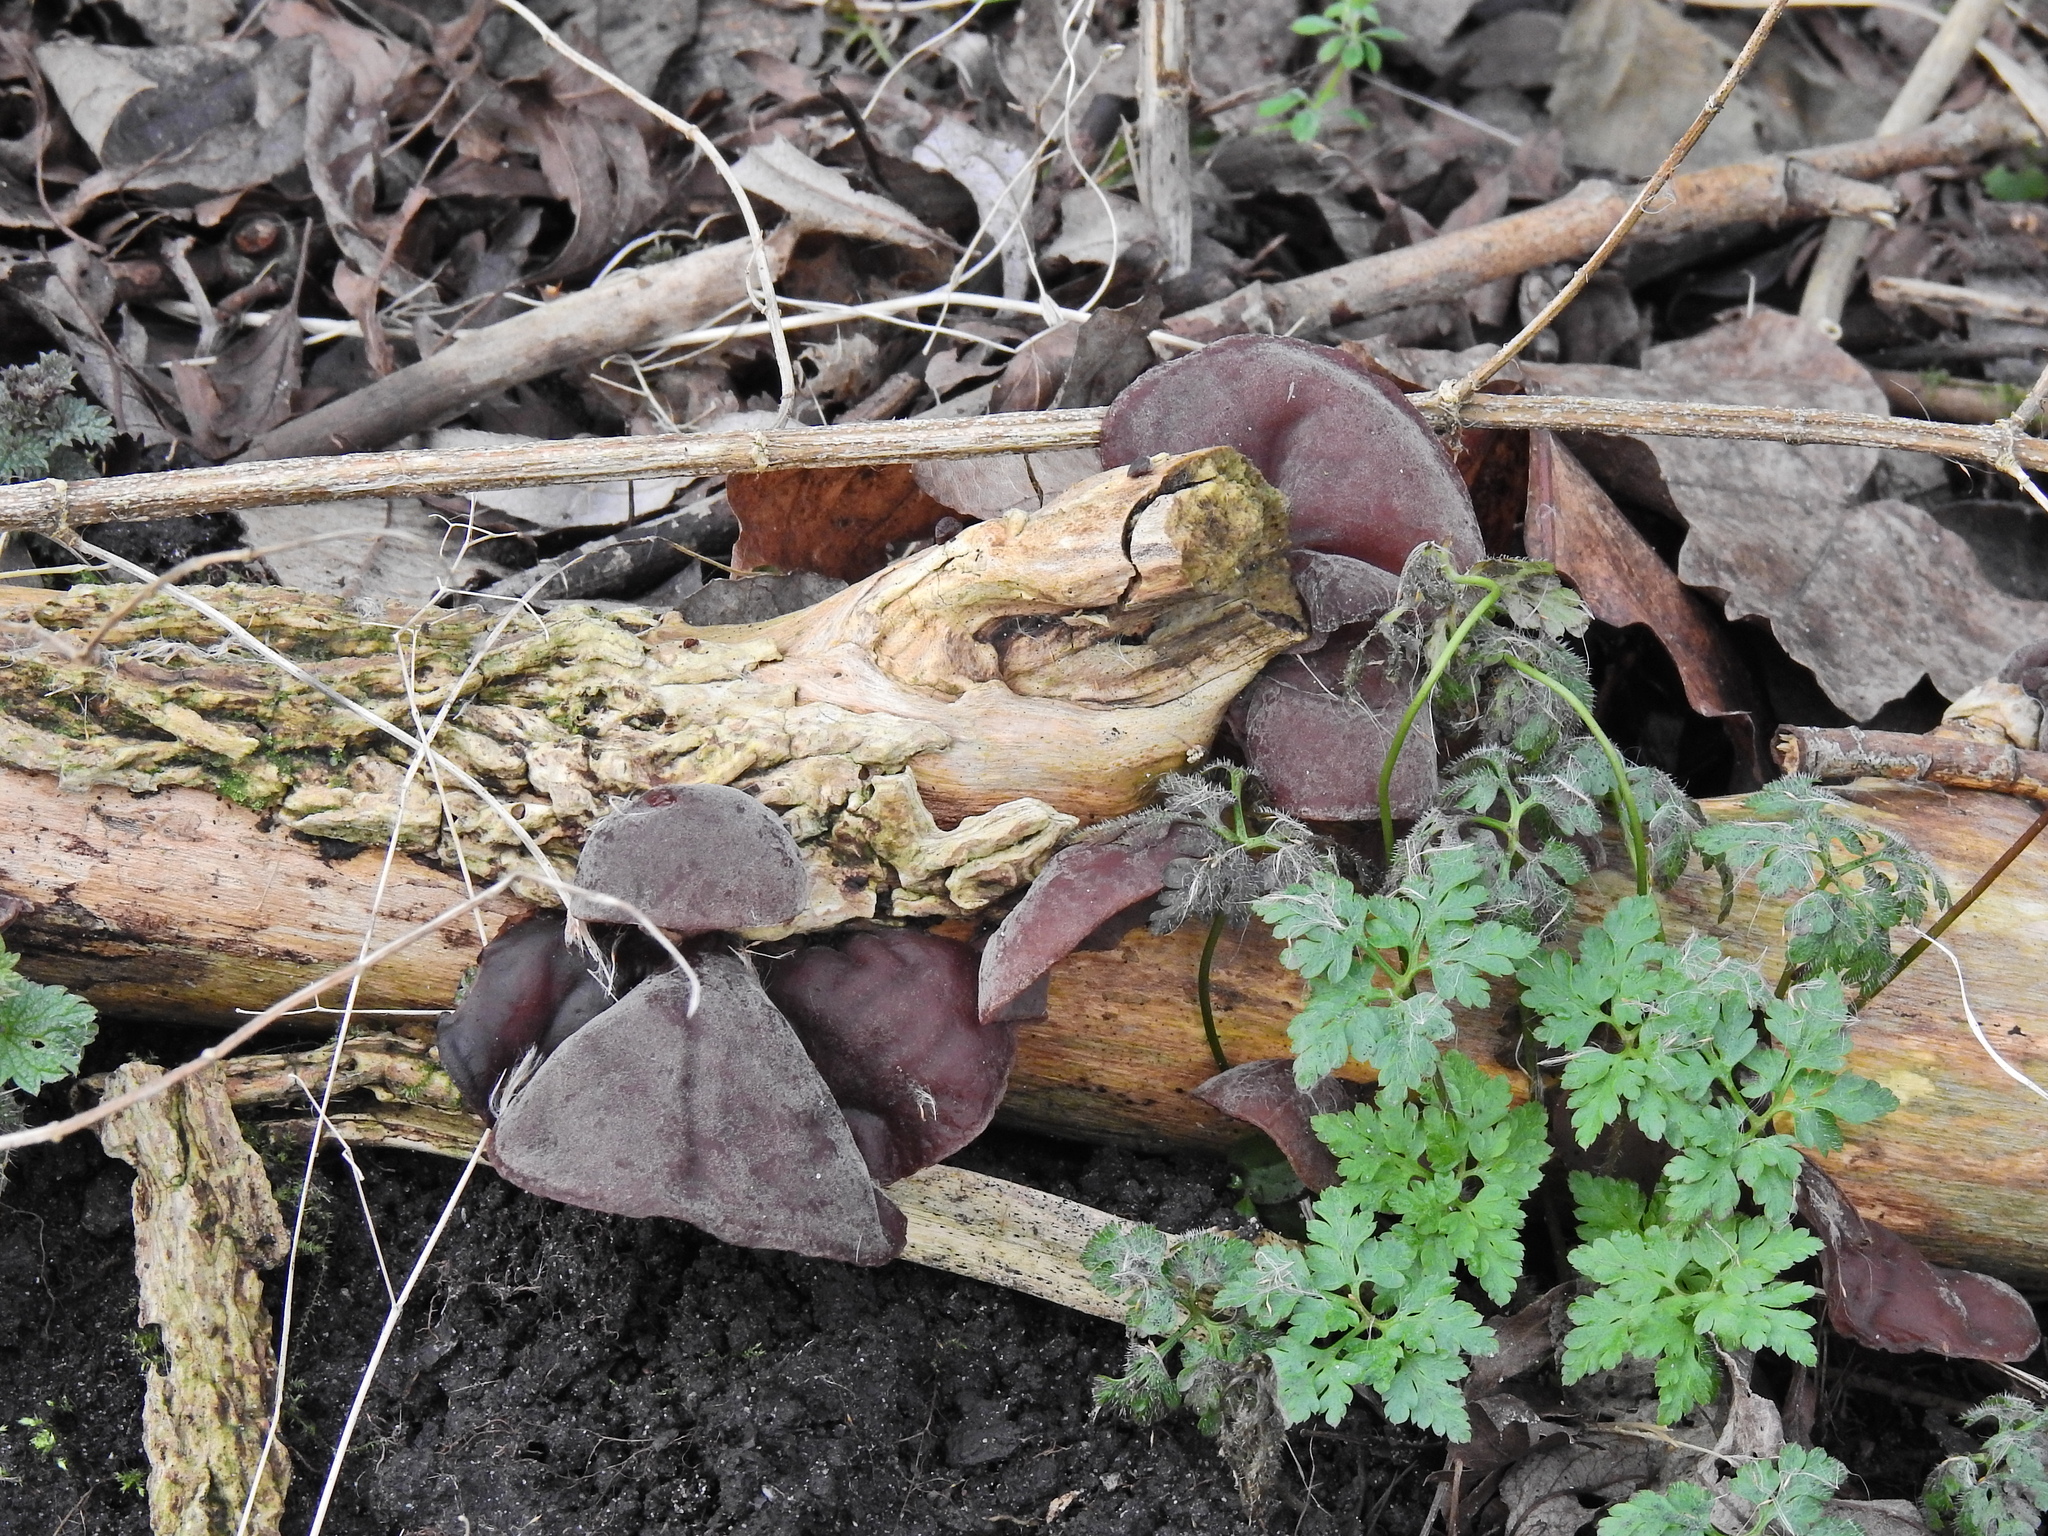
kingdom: Fungi
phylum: Basidiomycota
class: Agaricomycetes
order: Auriculariales
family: Auriculariaceae
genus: Auricularia
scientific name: Auricularia auricula-judae
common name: Jelly ear
